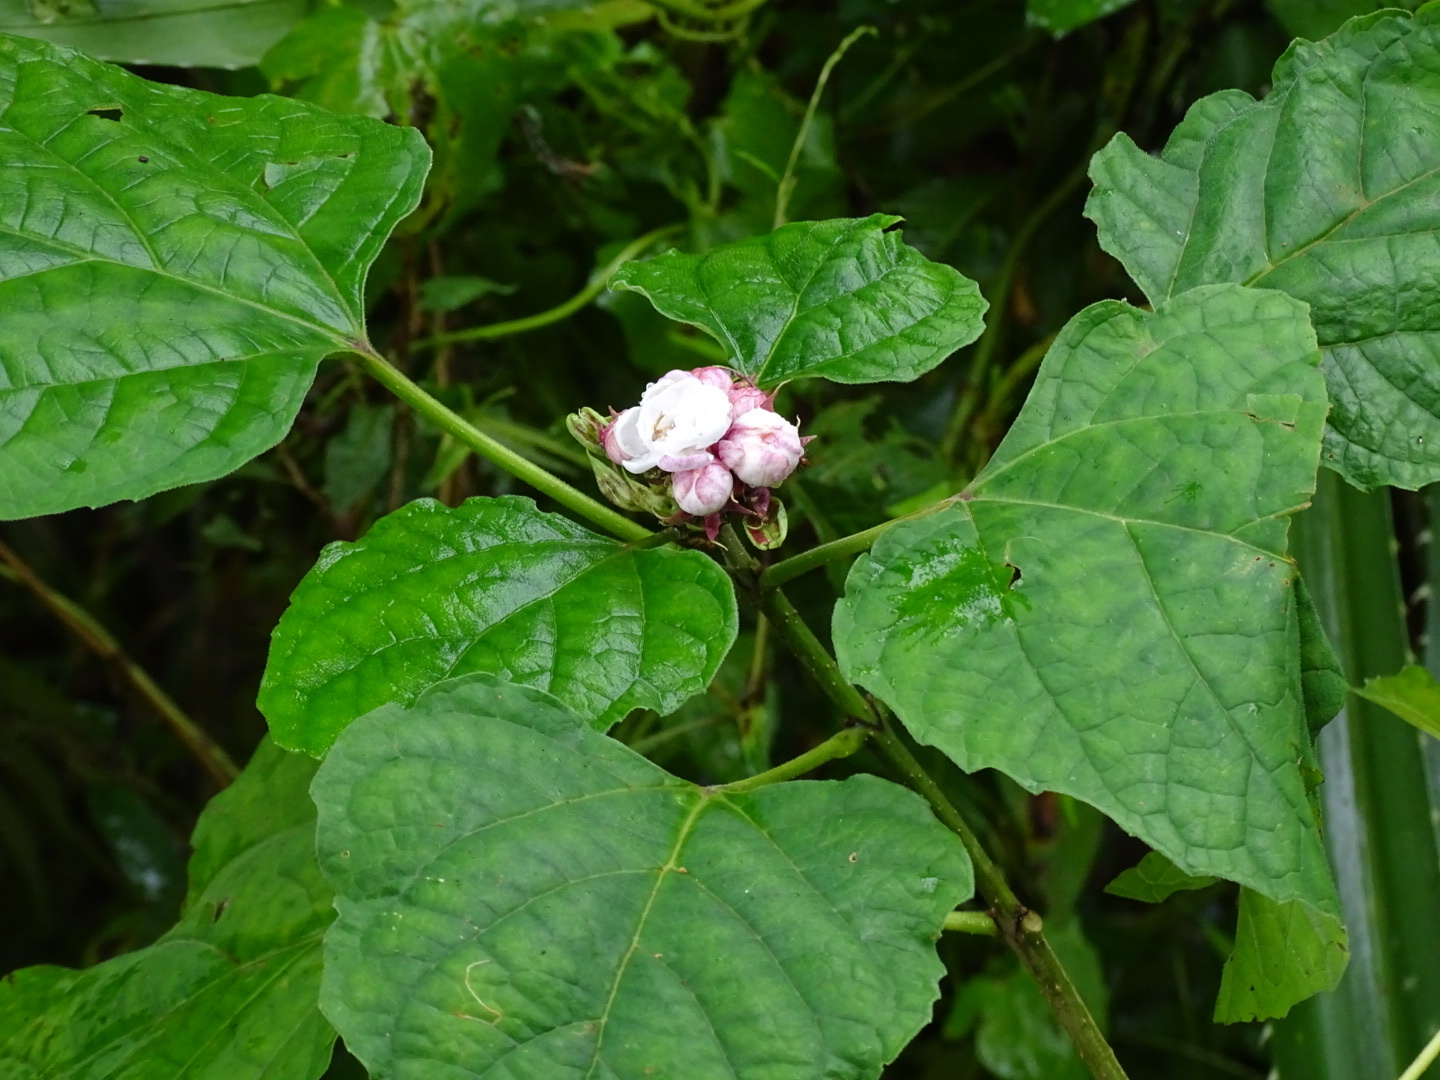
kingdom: Plantae
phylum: Tracheophyta
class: Magnoliopsida
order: Lamiales
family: Lamiaceae
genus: Clerodendrum
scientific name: Clerodendrum chinense
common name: Stickbush
